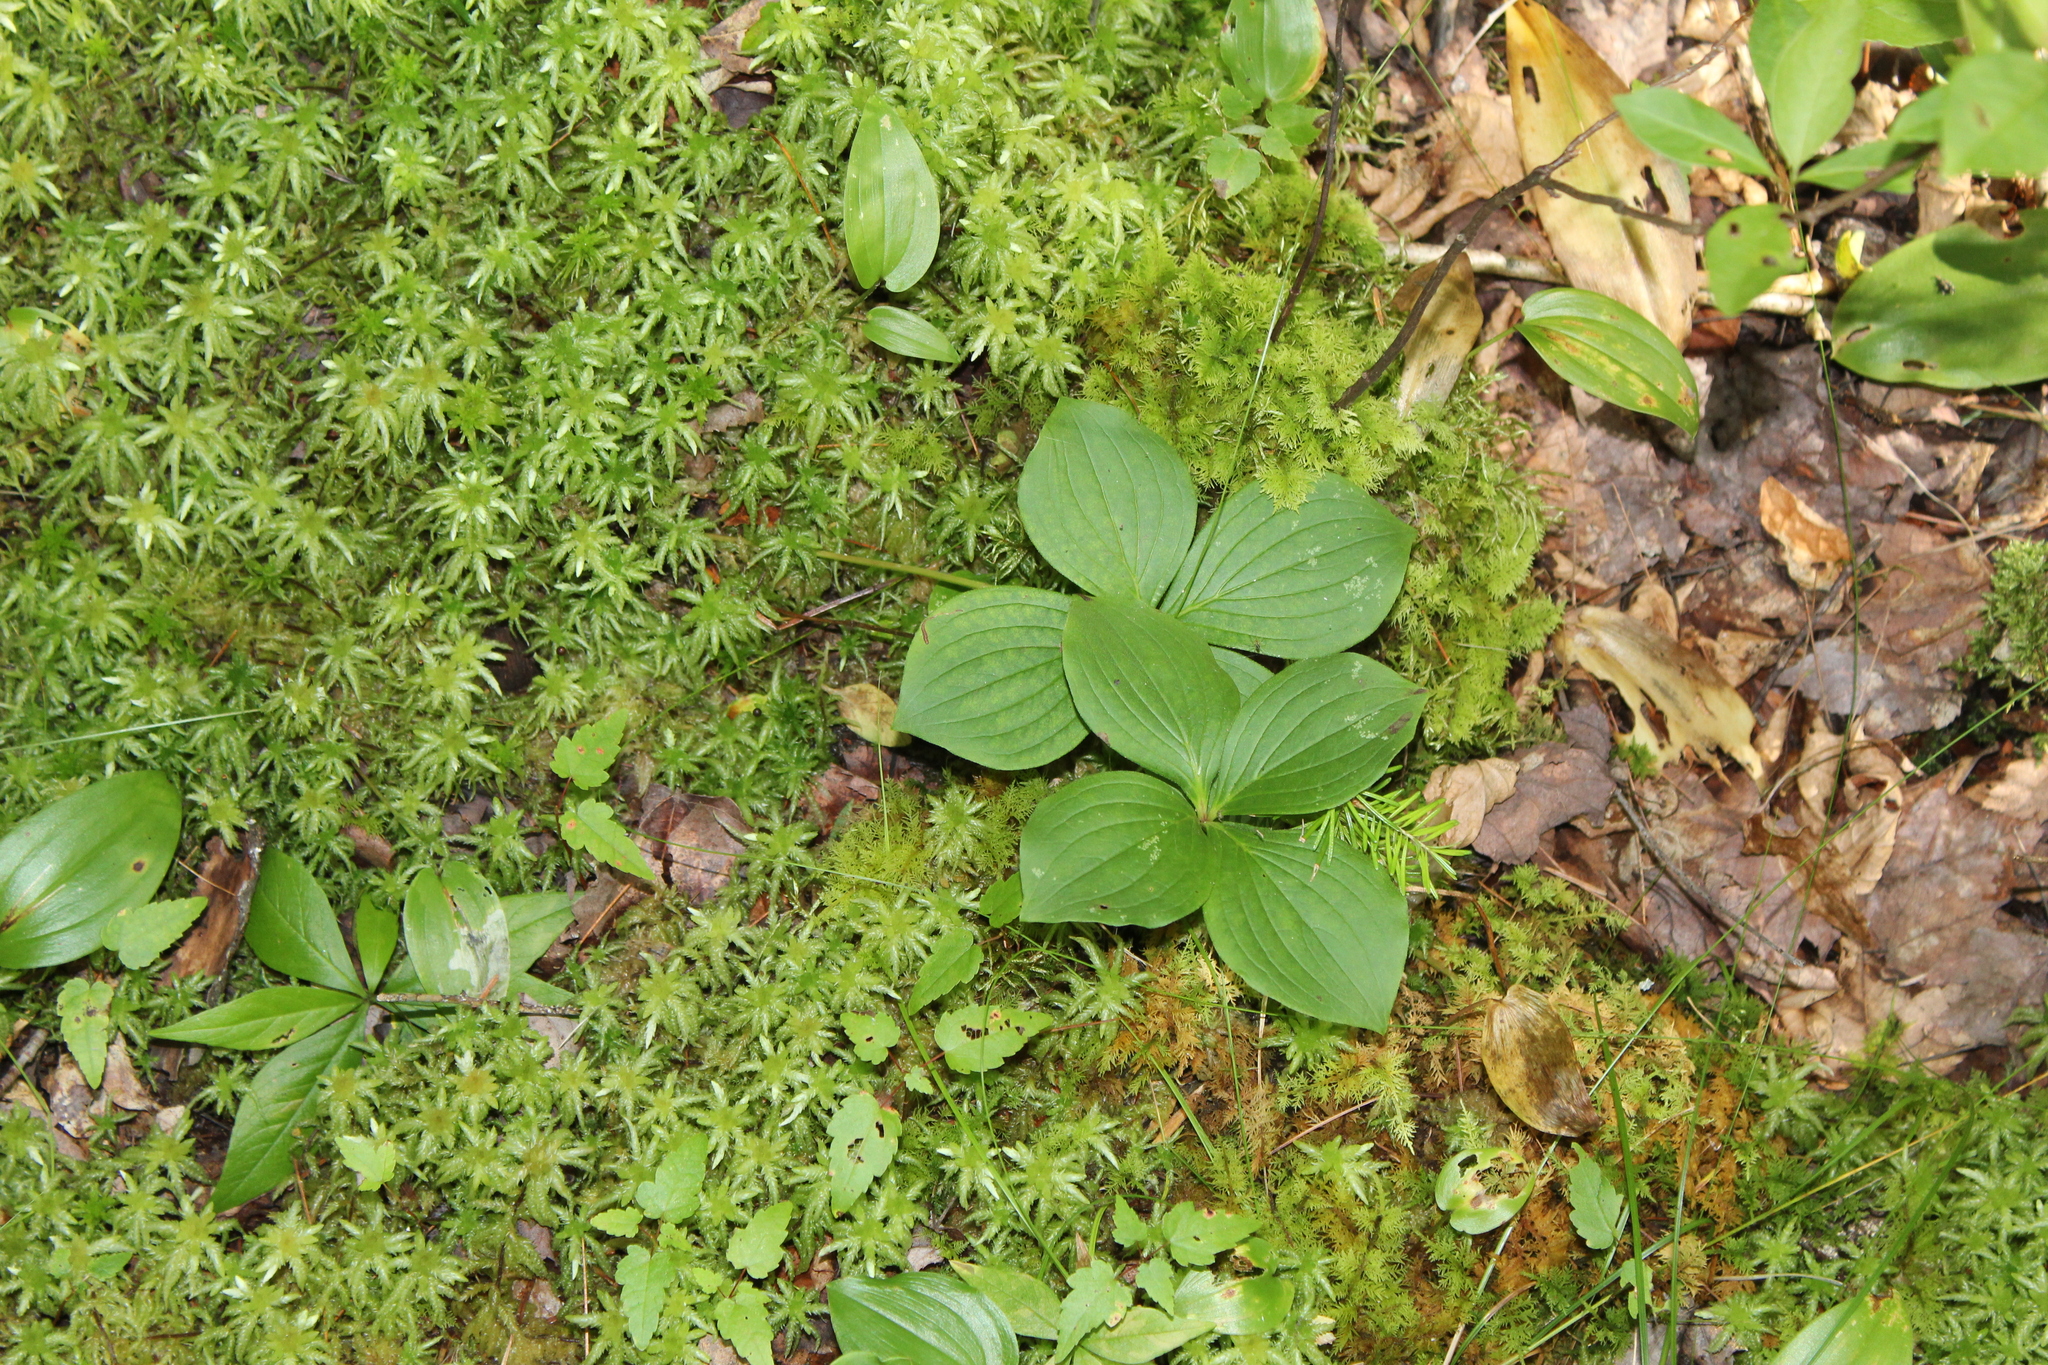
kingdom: Plantae
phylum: Tracheophyta
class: Magnoliopsida
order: Cornales
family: Cornaceae
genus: Cornus
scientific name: Cornus canadensis
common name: Creeping dogwood
